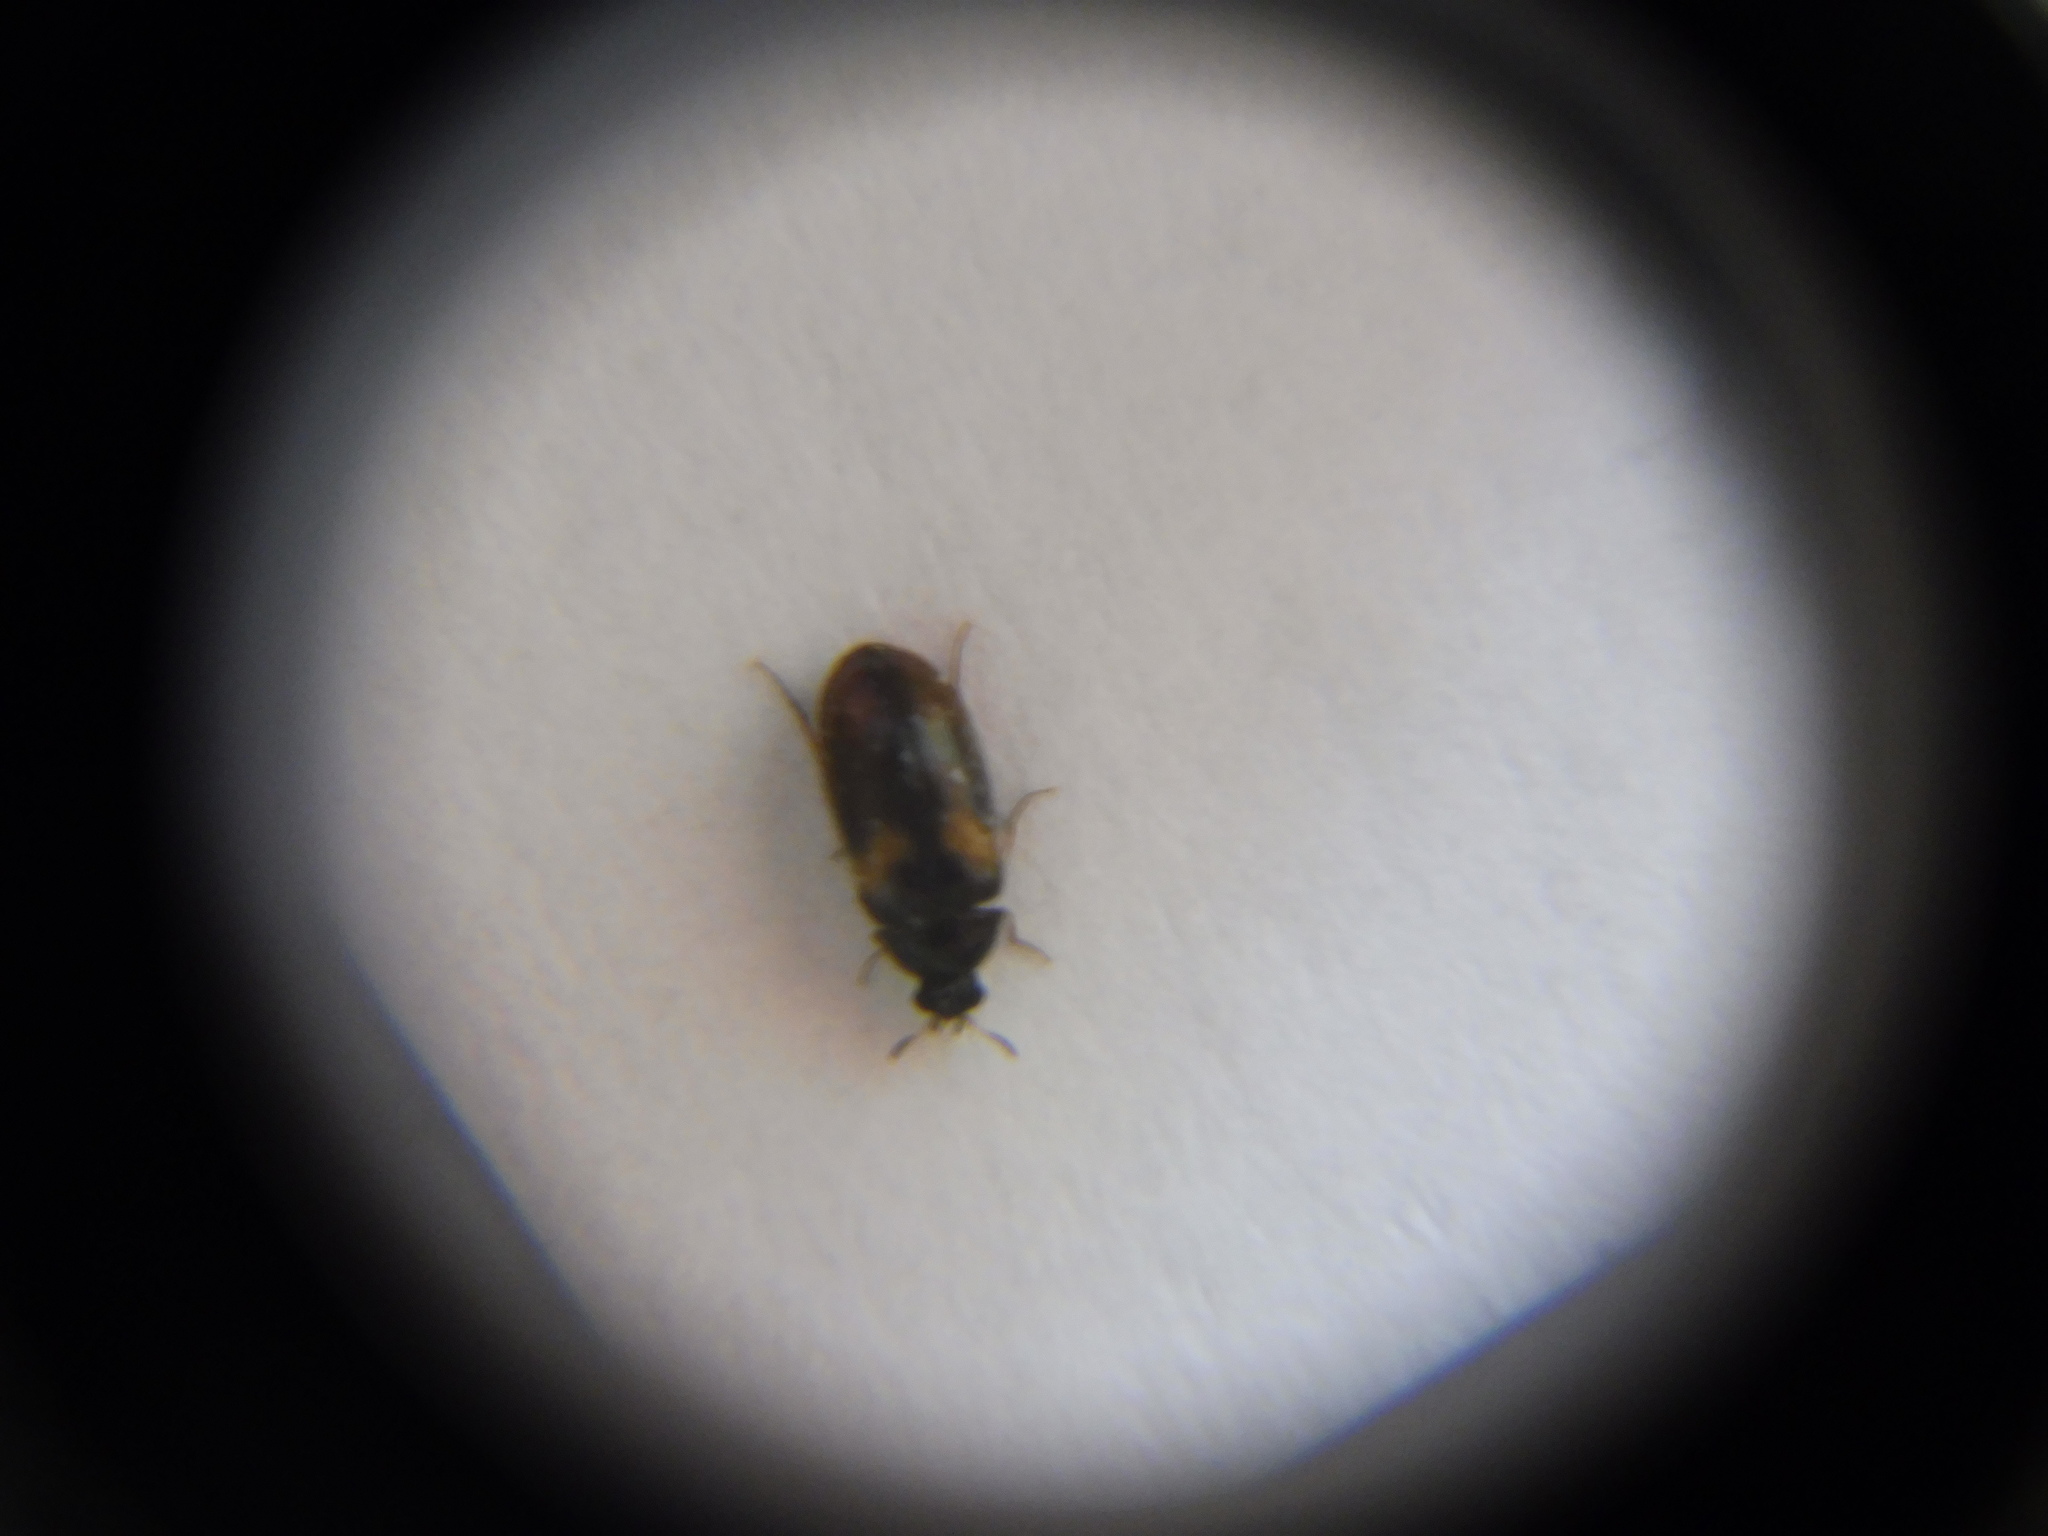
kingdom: Animalia
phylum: Arthropoda
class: Insecta
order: Coleoptera
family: Dermestidae
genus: Reesa
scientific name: Reesa vespulae
